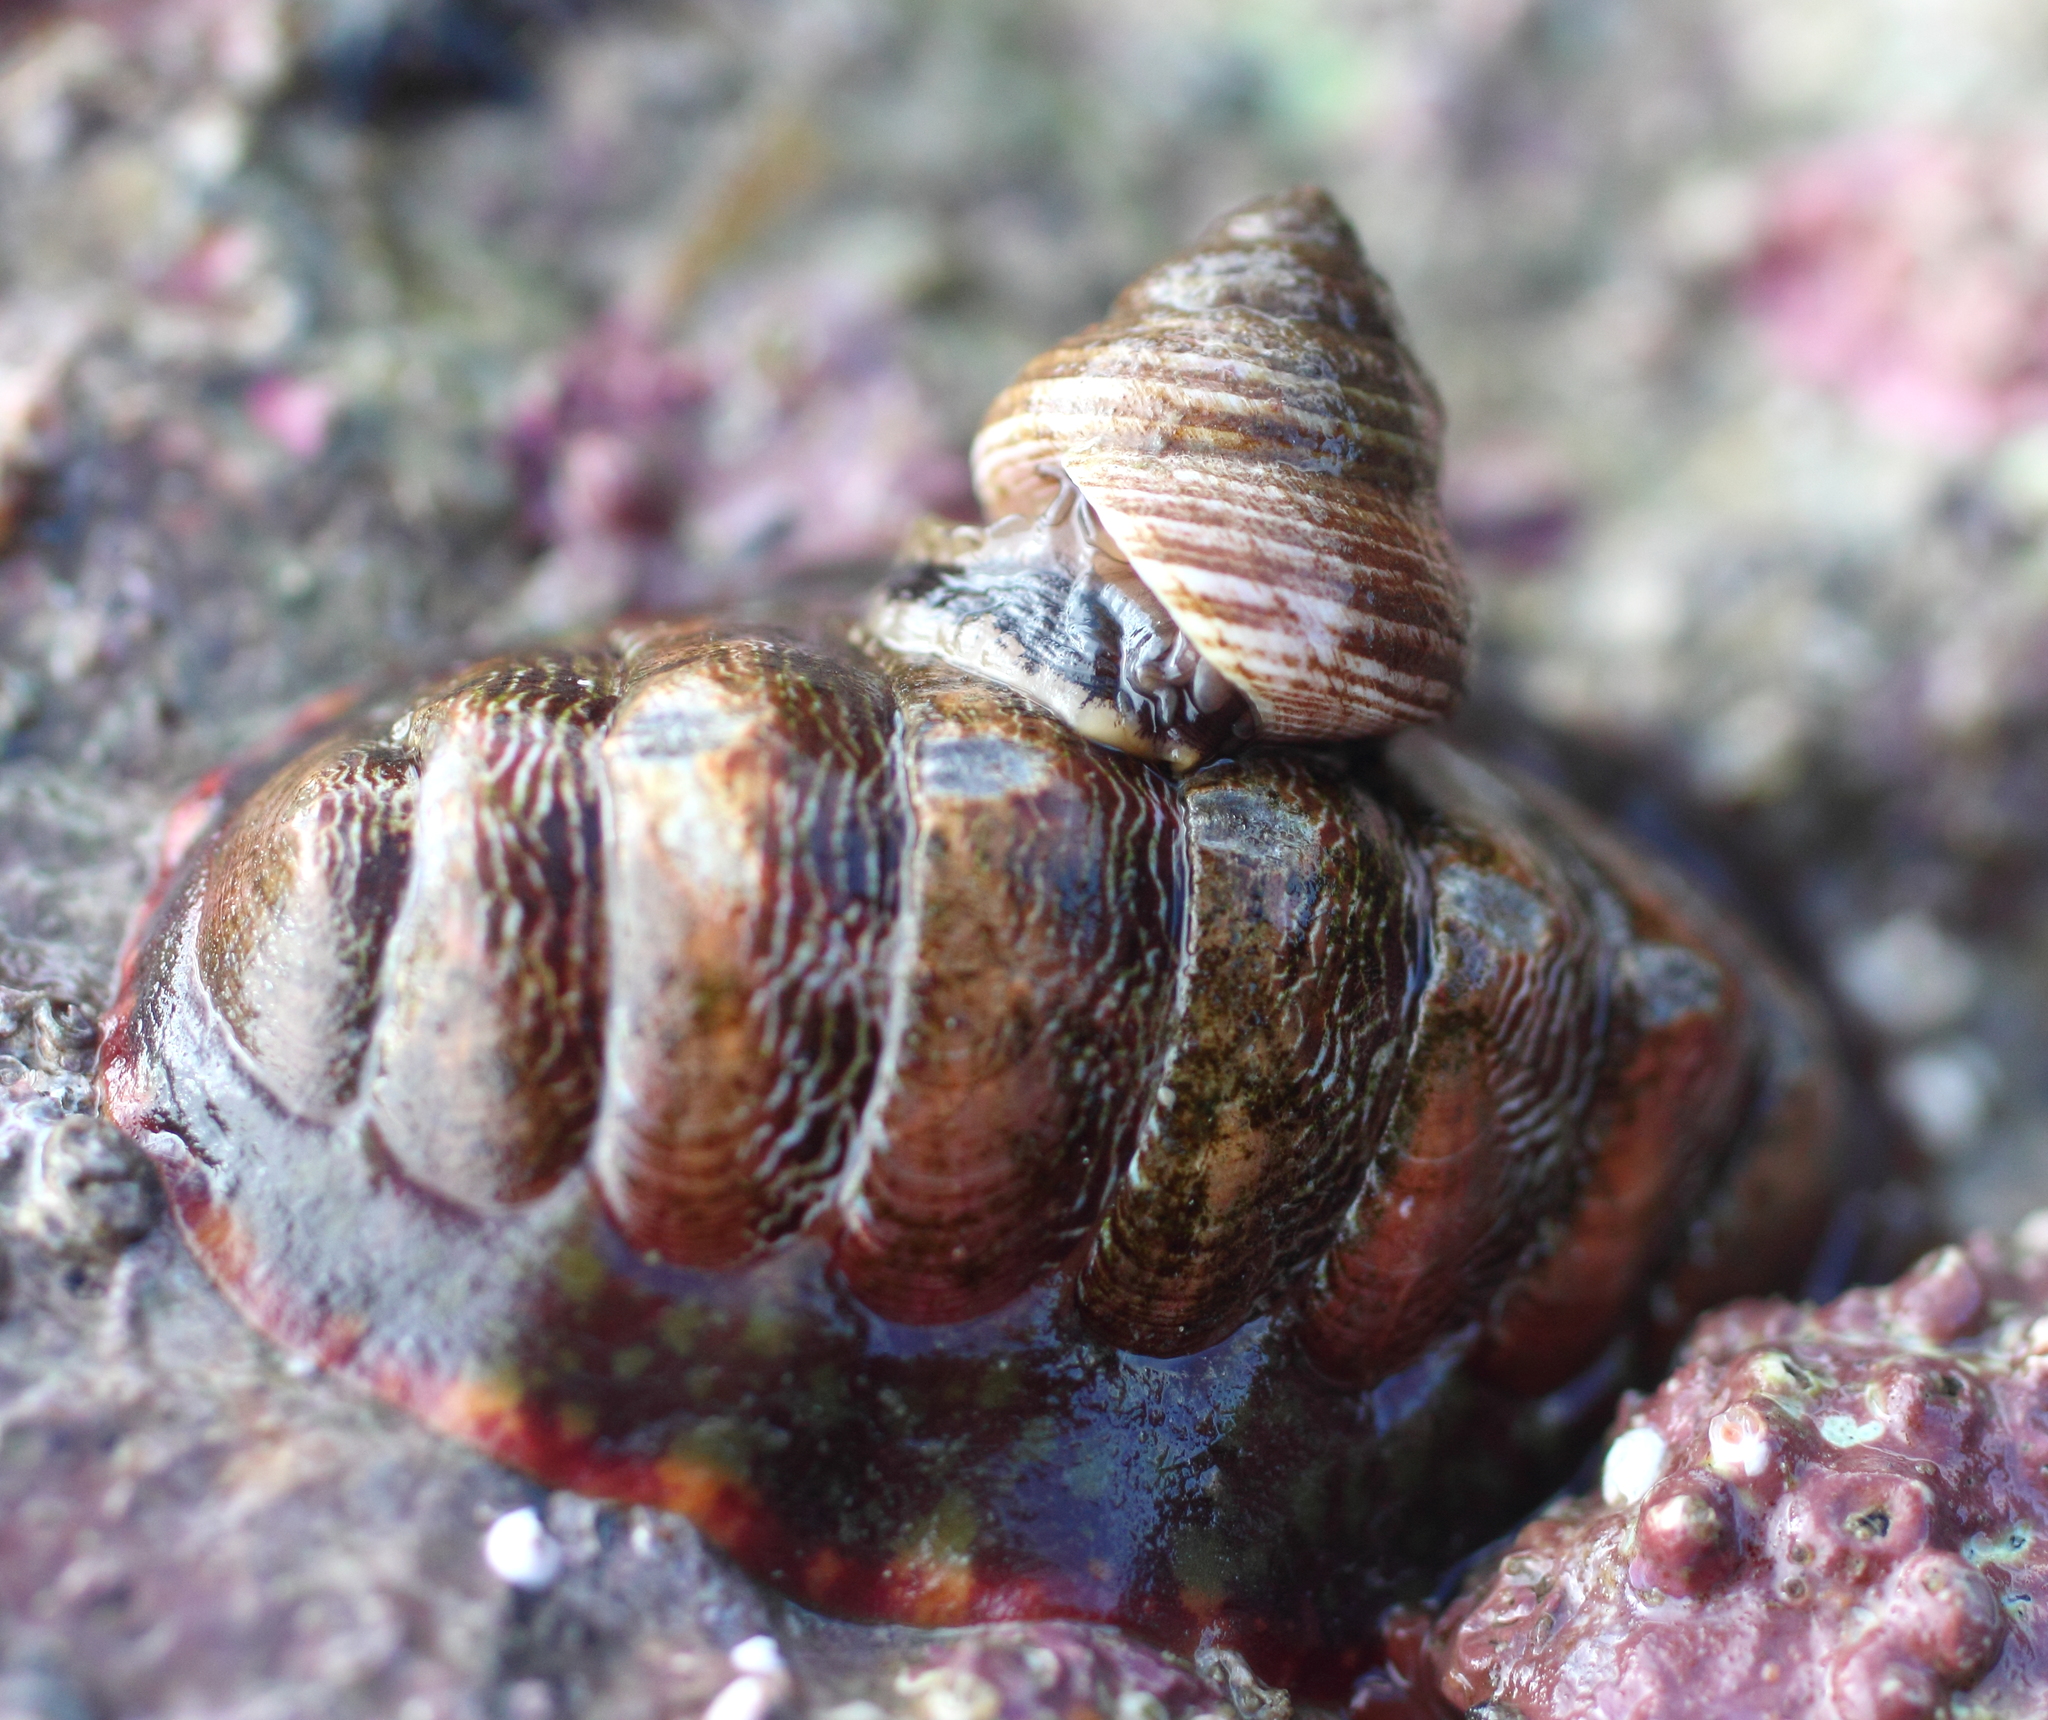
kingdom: Animalia
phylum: Mollusca
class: Polyplacophora
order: Chitonida
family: Tonicellidae
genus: Tonicella
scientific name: Tonicella insignis
